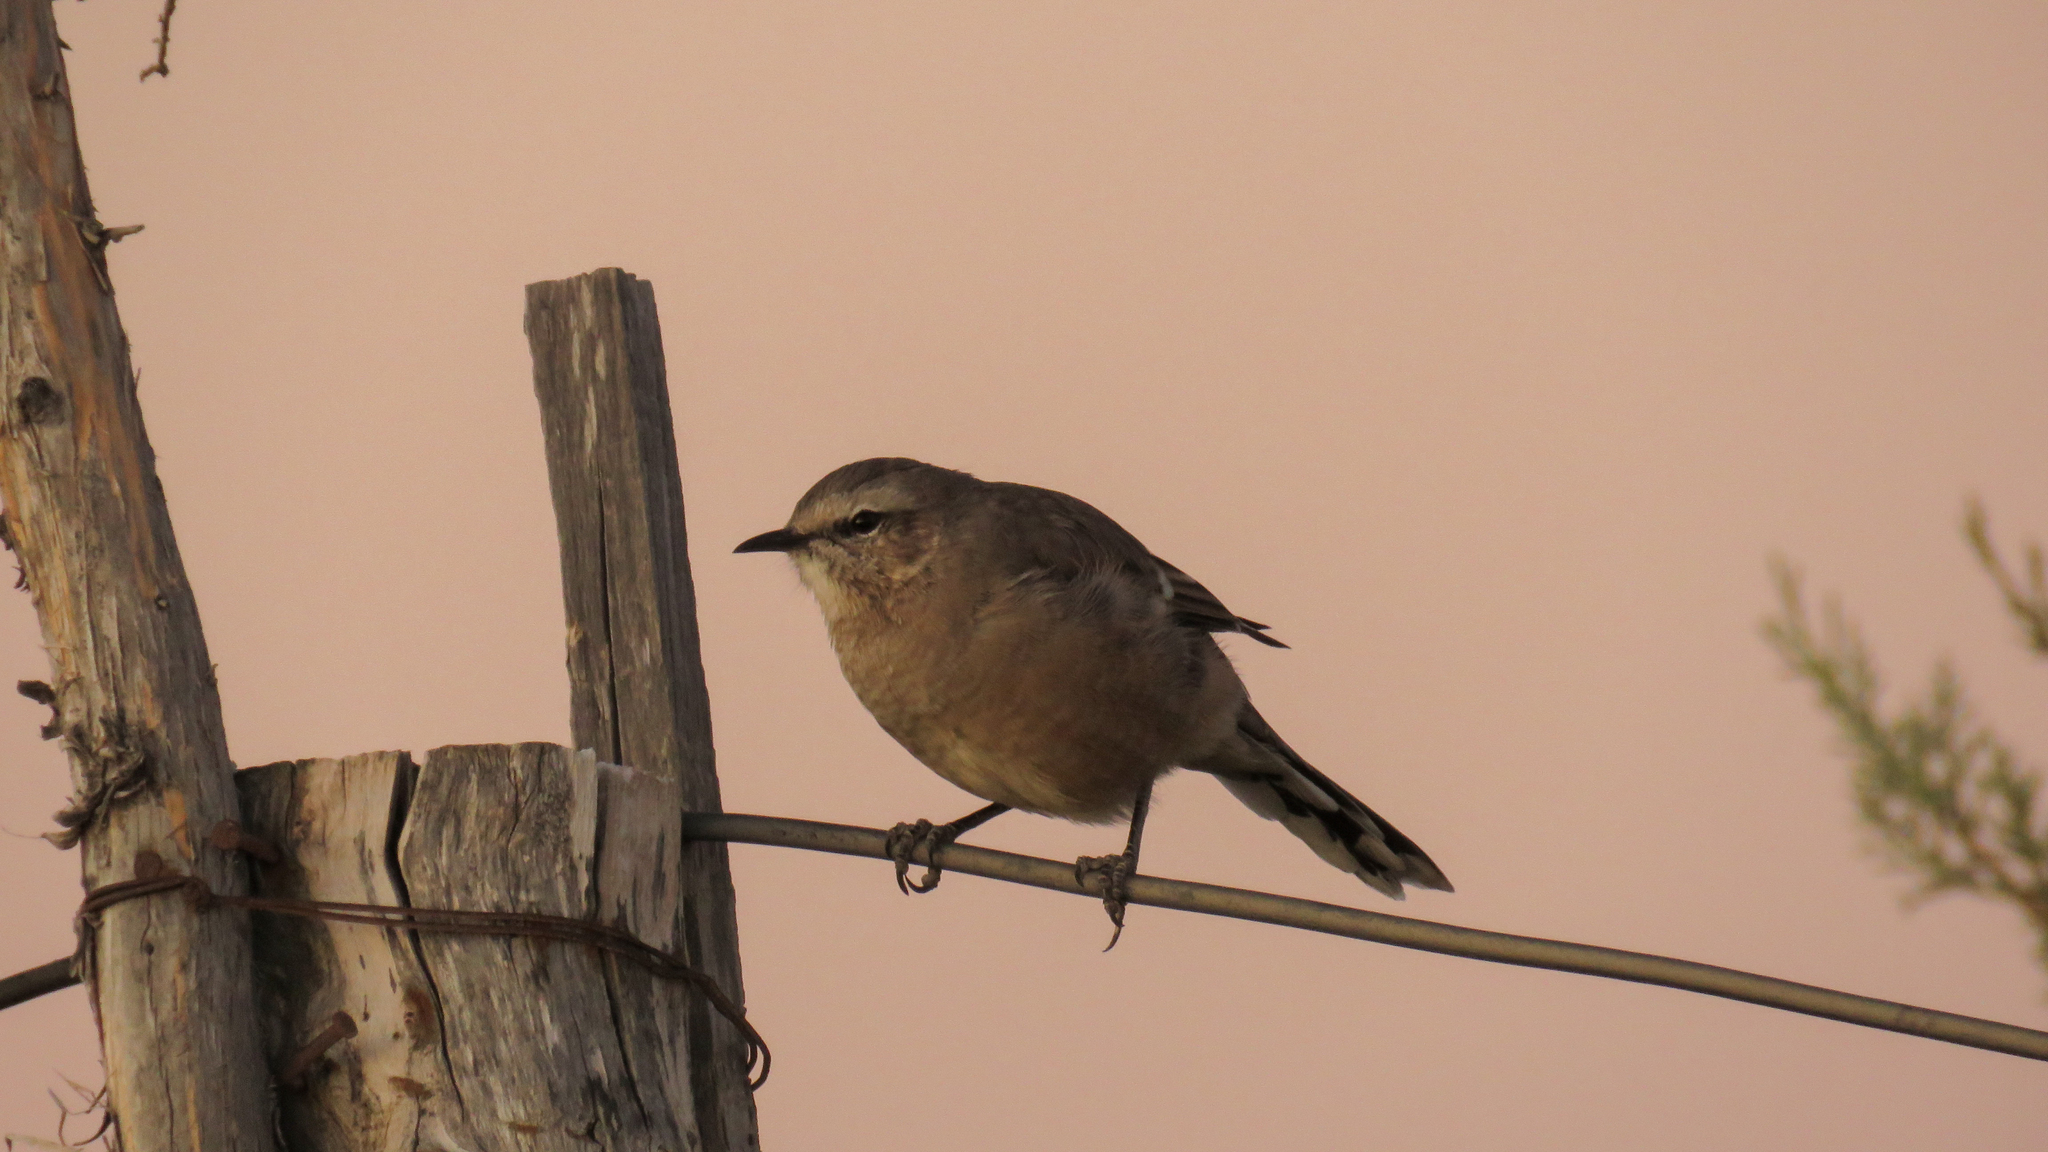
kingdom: Animalia
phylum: Chordata
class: Aves
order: Passeriformes
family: Mimidae
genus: Mimus
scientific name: Mimus patagonicus
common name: Patagonian mockingbird
